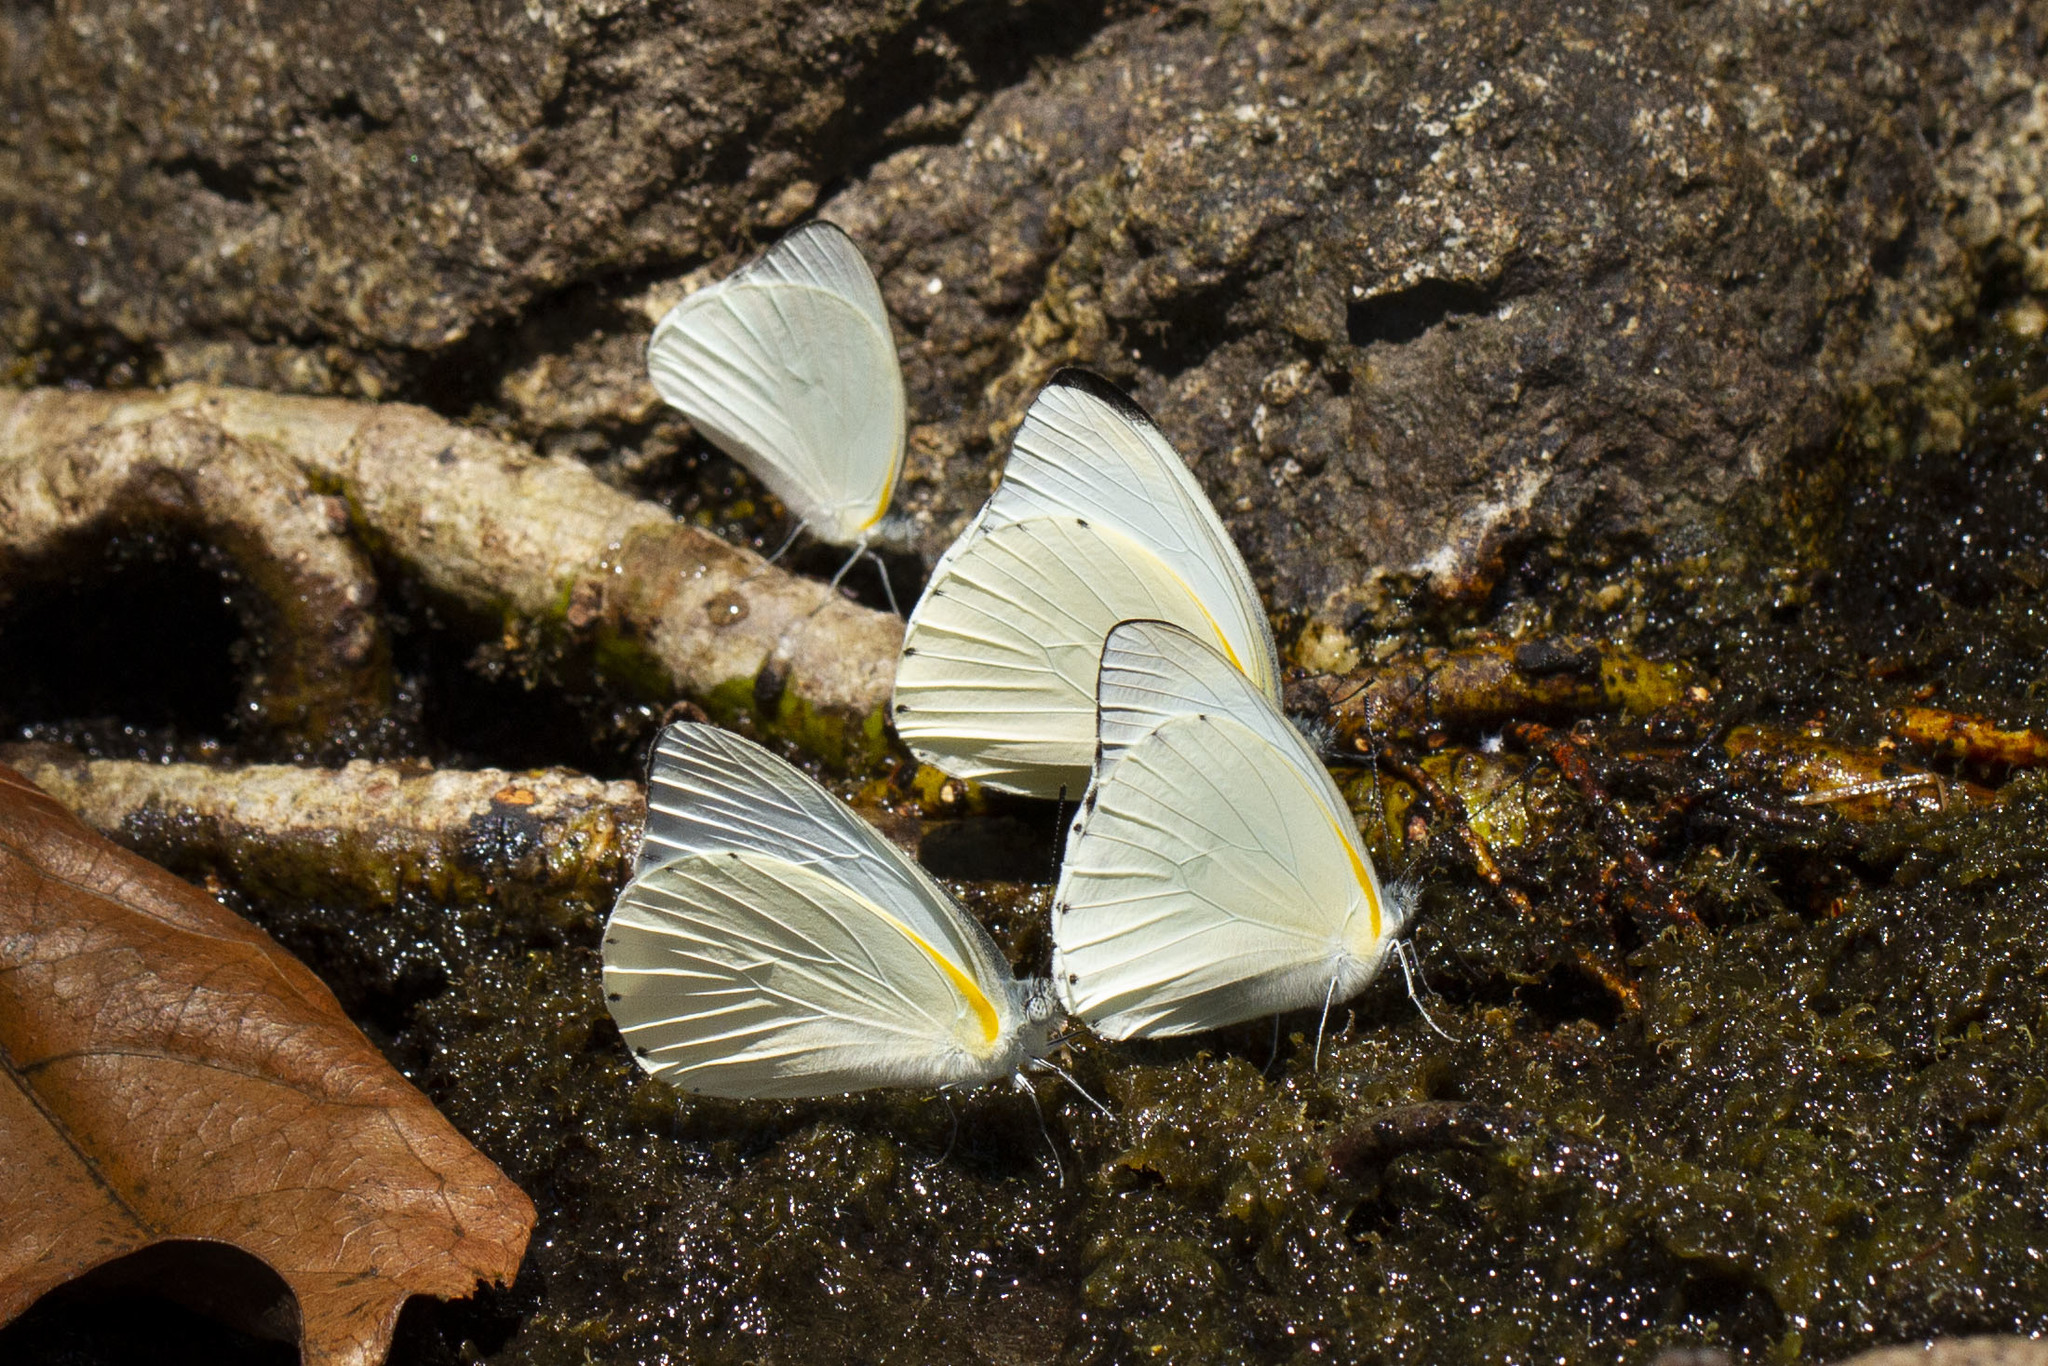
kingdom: Animalia
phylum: Arthropoda
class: Insecta
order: Lepidoptera
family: Pieridae
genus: Glutophrissa
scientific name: Glutophrissa sabina
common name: Sabine albatross
